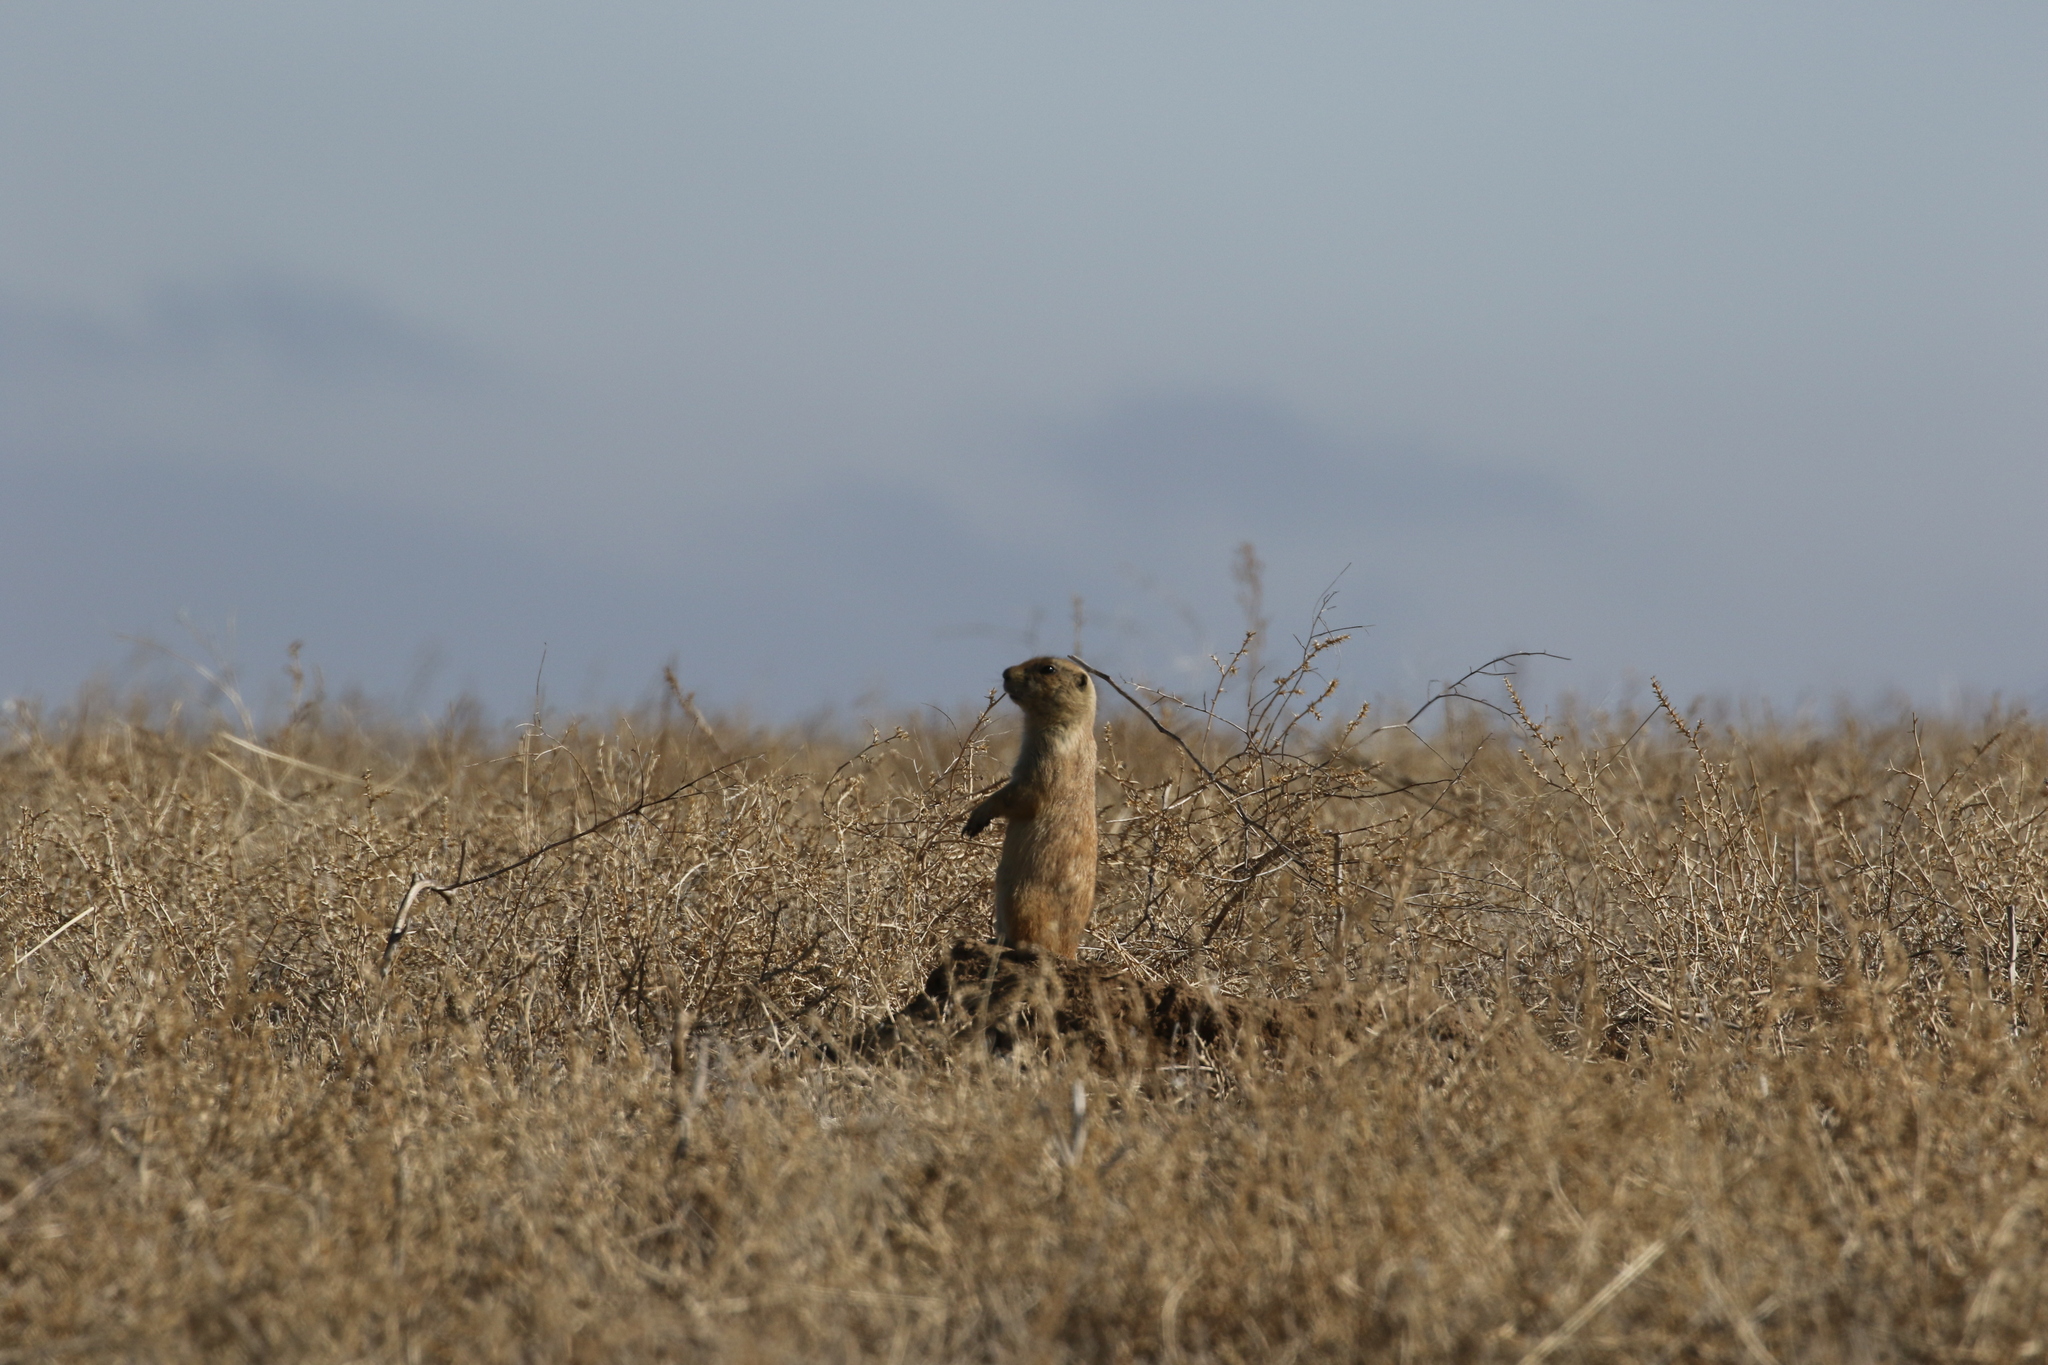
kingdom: Animalia
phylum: Chordata
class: Mammalia
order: Rodentia
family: Sciuridae
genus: Cynomys
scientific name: Cynomys ludovicianus
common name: Black-tailed prairie dog
